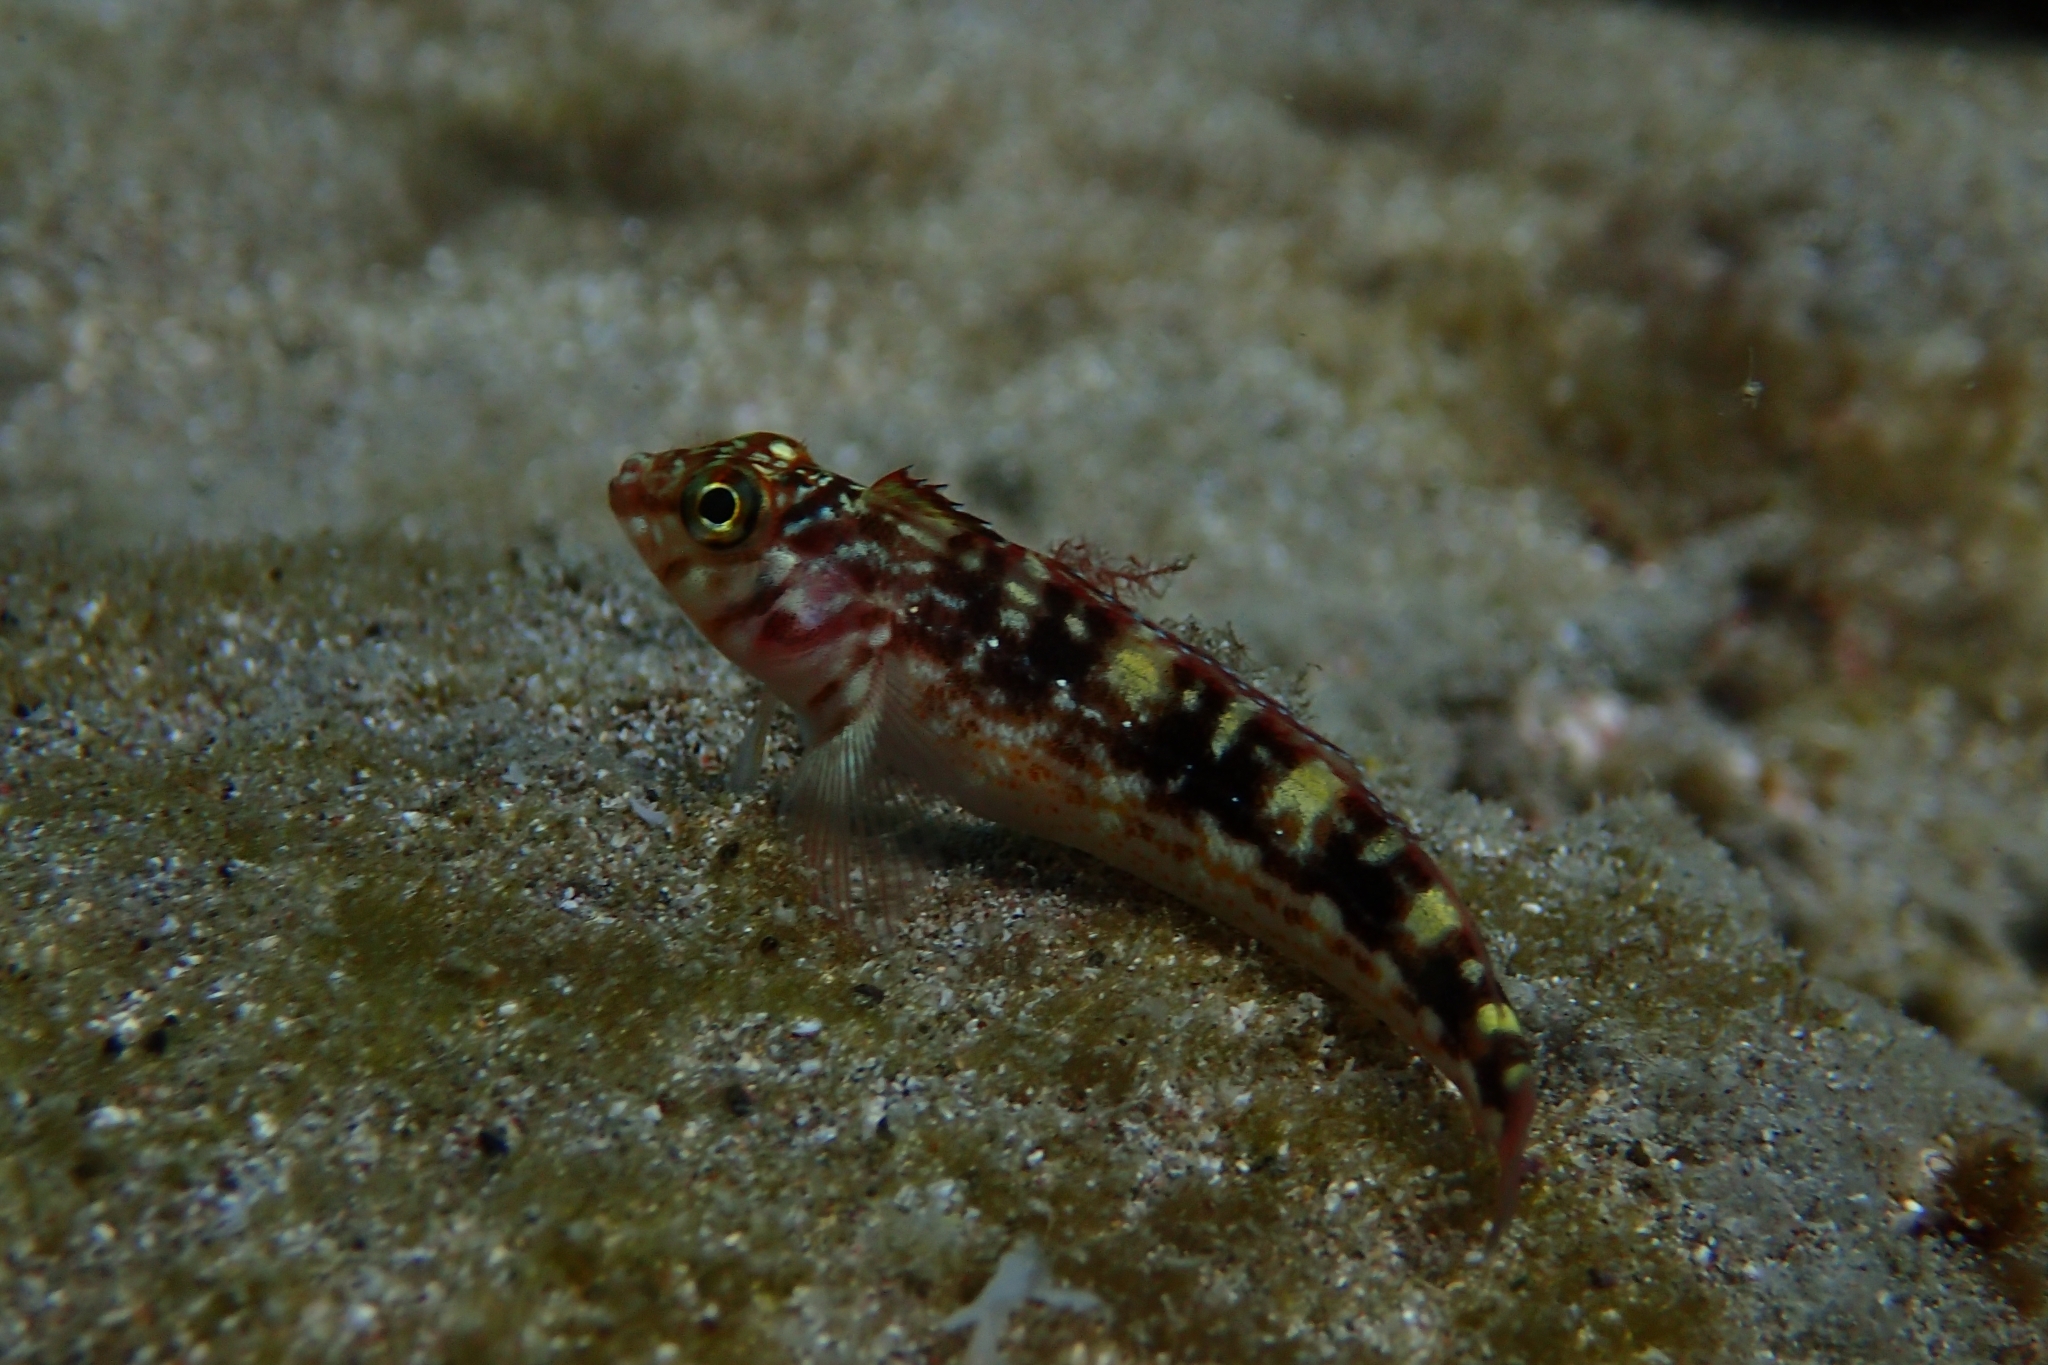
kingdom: Animalia
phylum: Chordata
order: Perciformes
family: Tripterygiidae
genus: Forsterygion
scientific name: Forsterygion varium
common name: Variable triplefin
